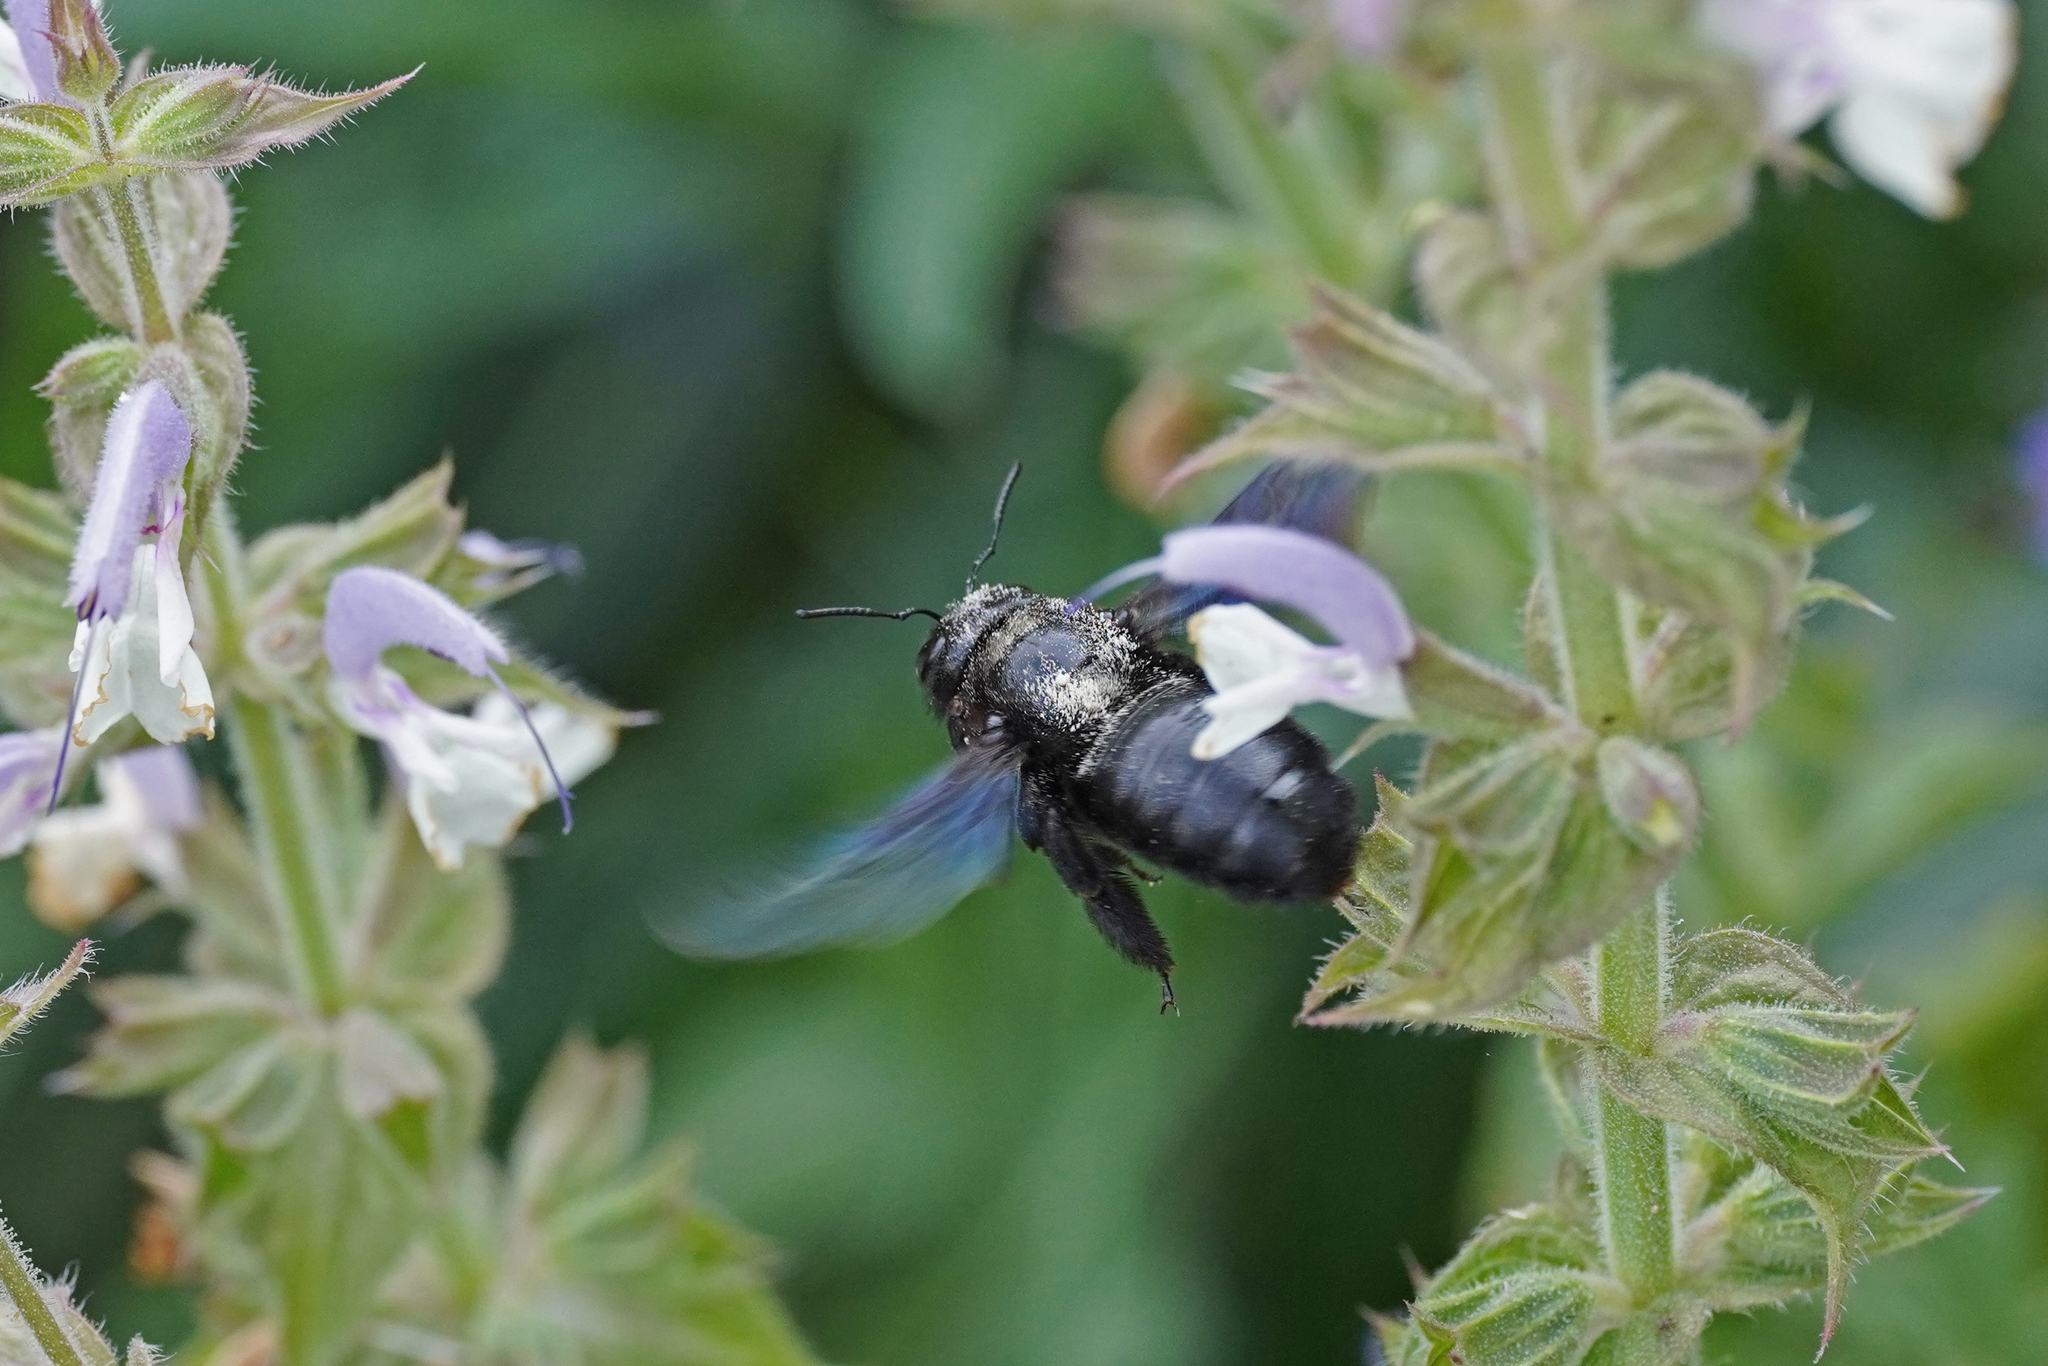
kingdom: Animalia
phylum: Arthropoda
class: Insecta
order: Hymenoptera
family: Apidae
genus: Xylocopa
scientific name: Xylocopa violacea
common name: Violet carpenter bee
